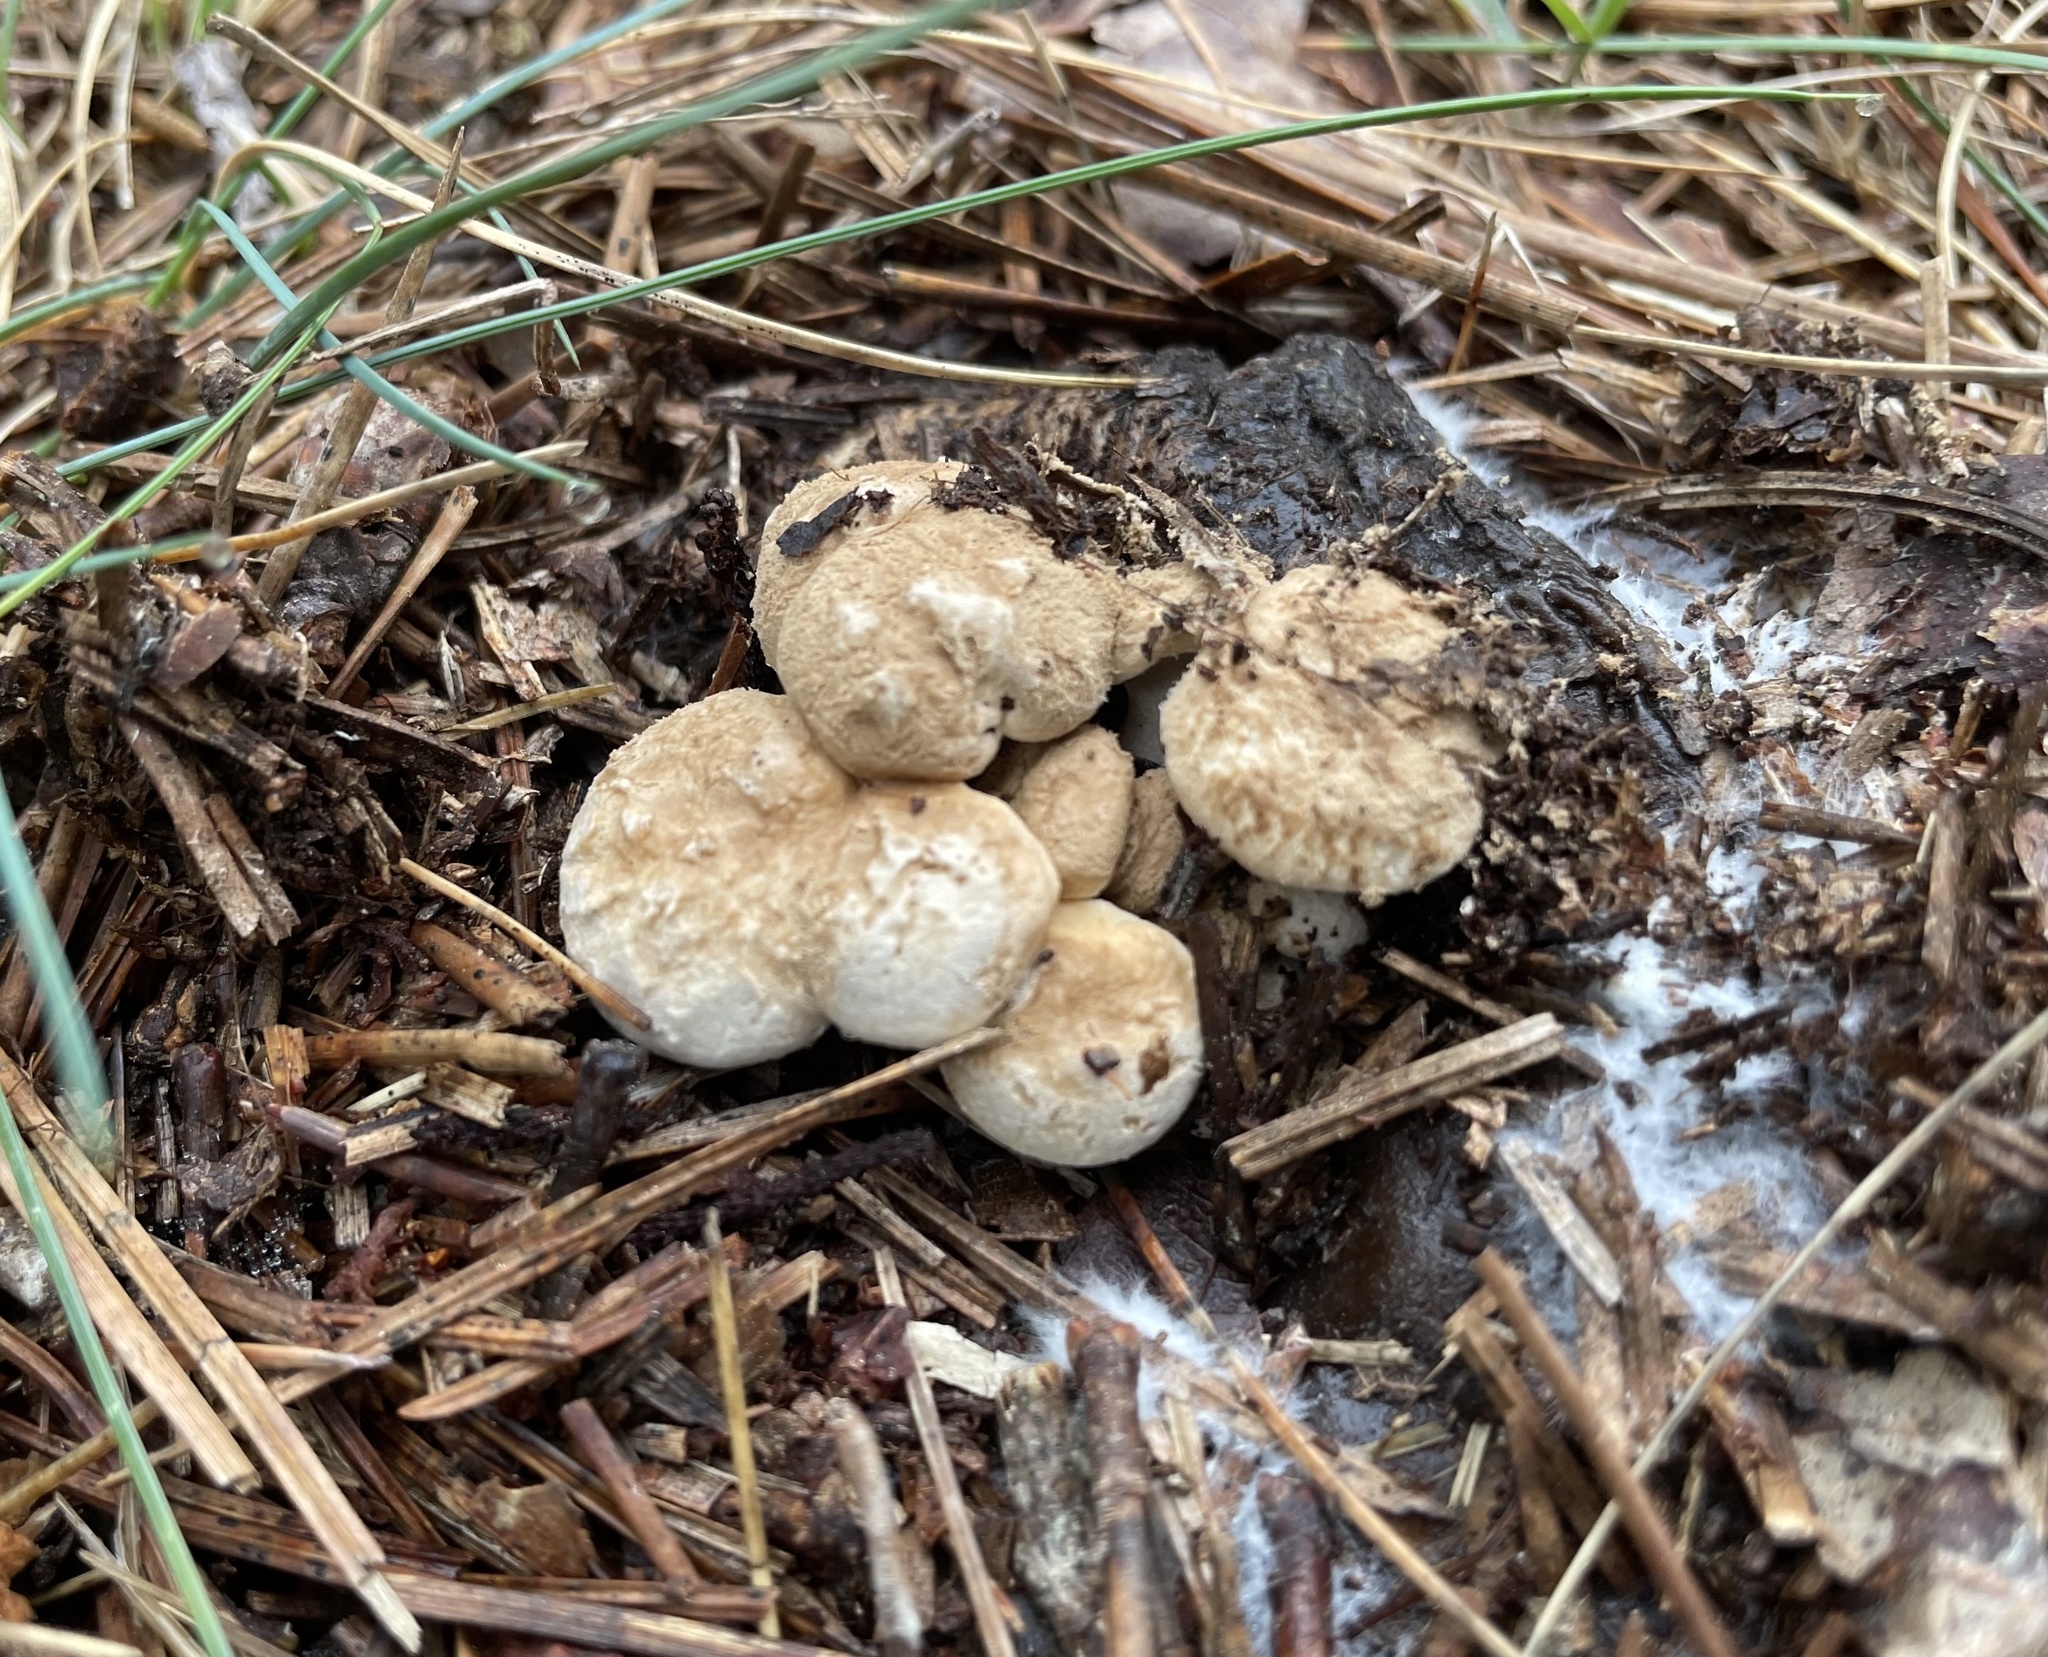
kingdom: Fungi
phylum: Basidiomycota
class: Agaricomycetes
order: Agaricales
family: Lyophyllaceae
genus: Asterophora
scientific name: Asterophora lycoperdoides
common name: Pick-a-back toadstool
